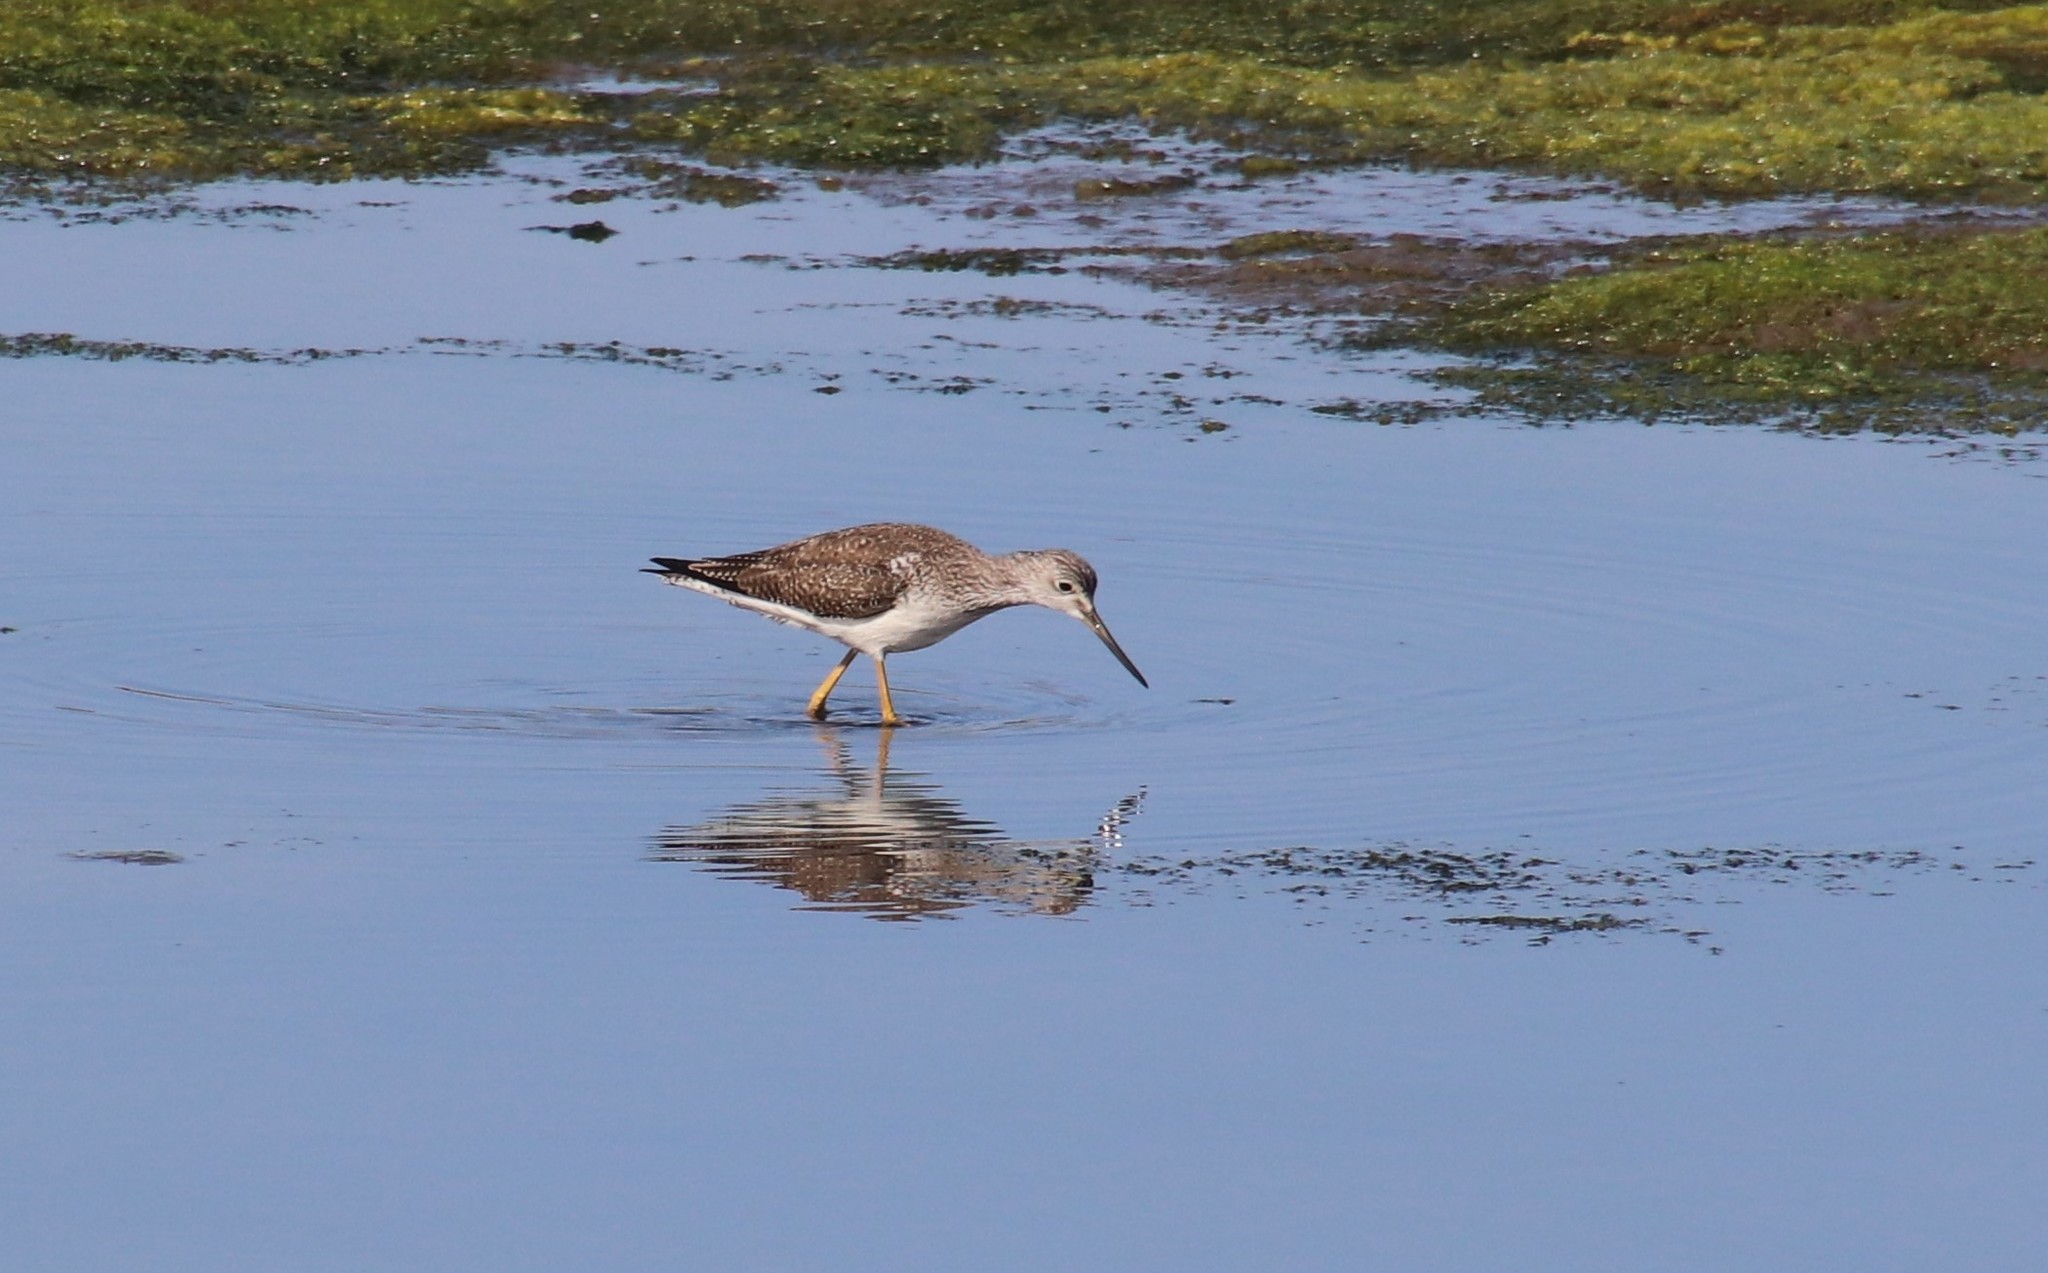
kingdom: Animalia
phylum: Chordata
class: Aves
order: Charadriiformes
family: Scolopacidae
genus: Tringa
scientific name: Tringa melanoleuca
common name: Greater yellowlegs
